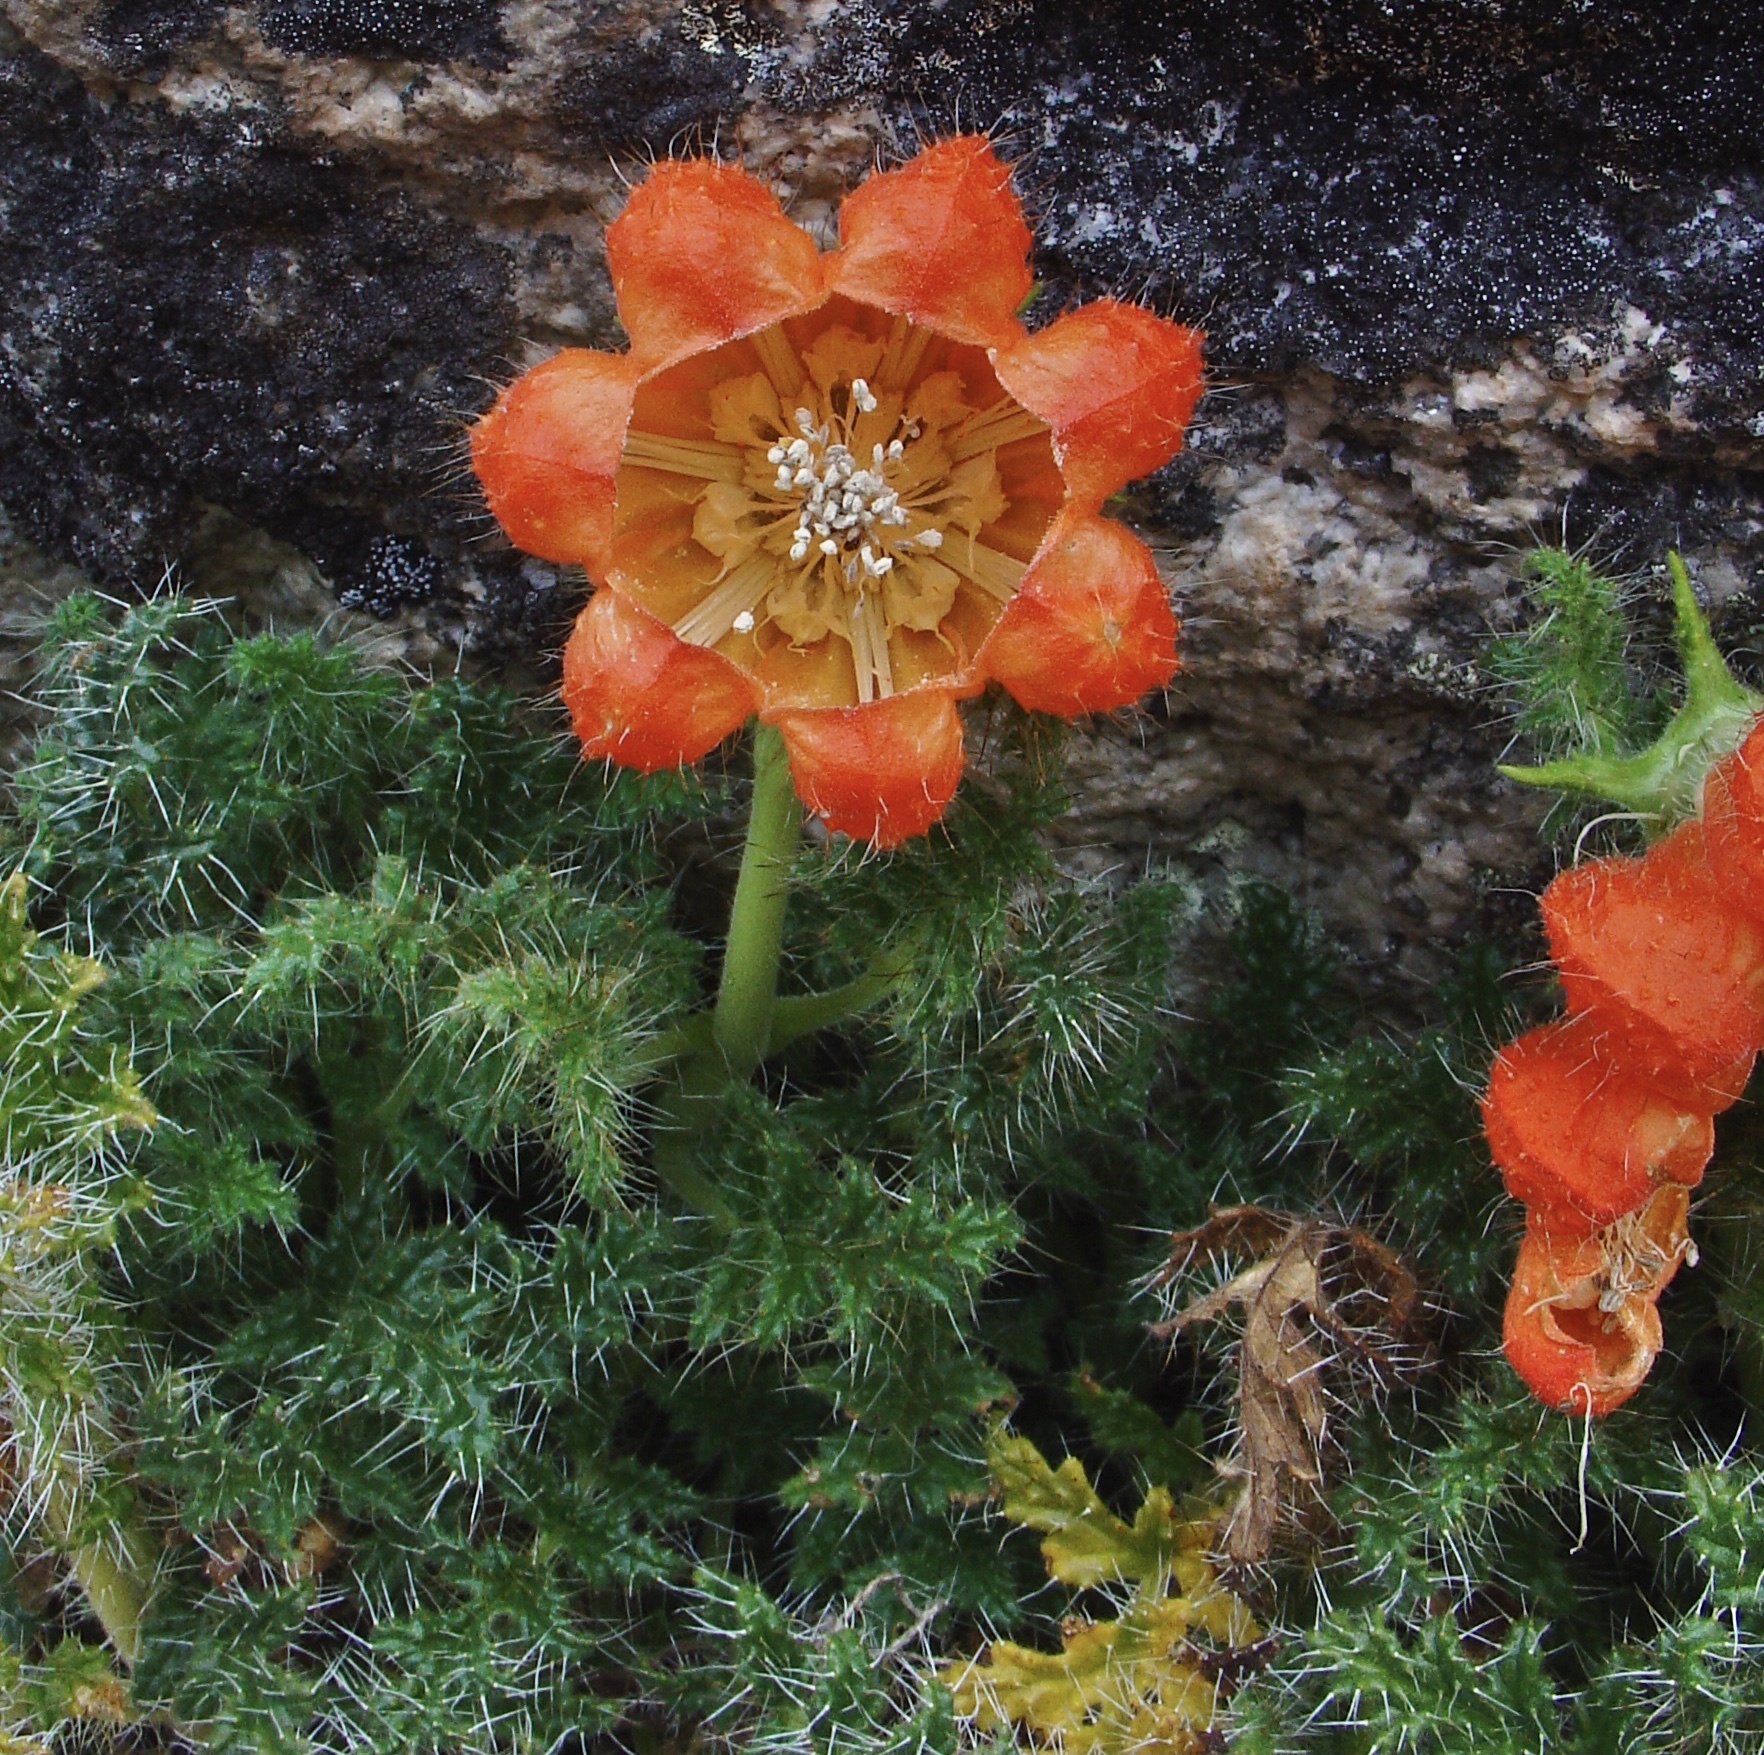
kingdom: Plantae
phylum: Tracheophyta
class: Magnoliopsida
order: Cornales
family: Loasaceae
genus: Caiophora
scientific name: Caiophora chuquitensis
